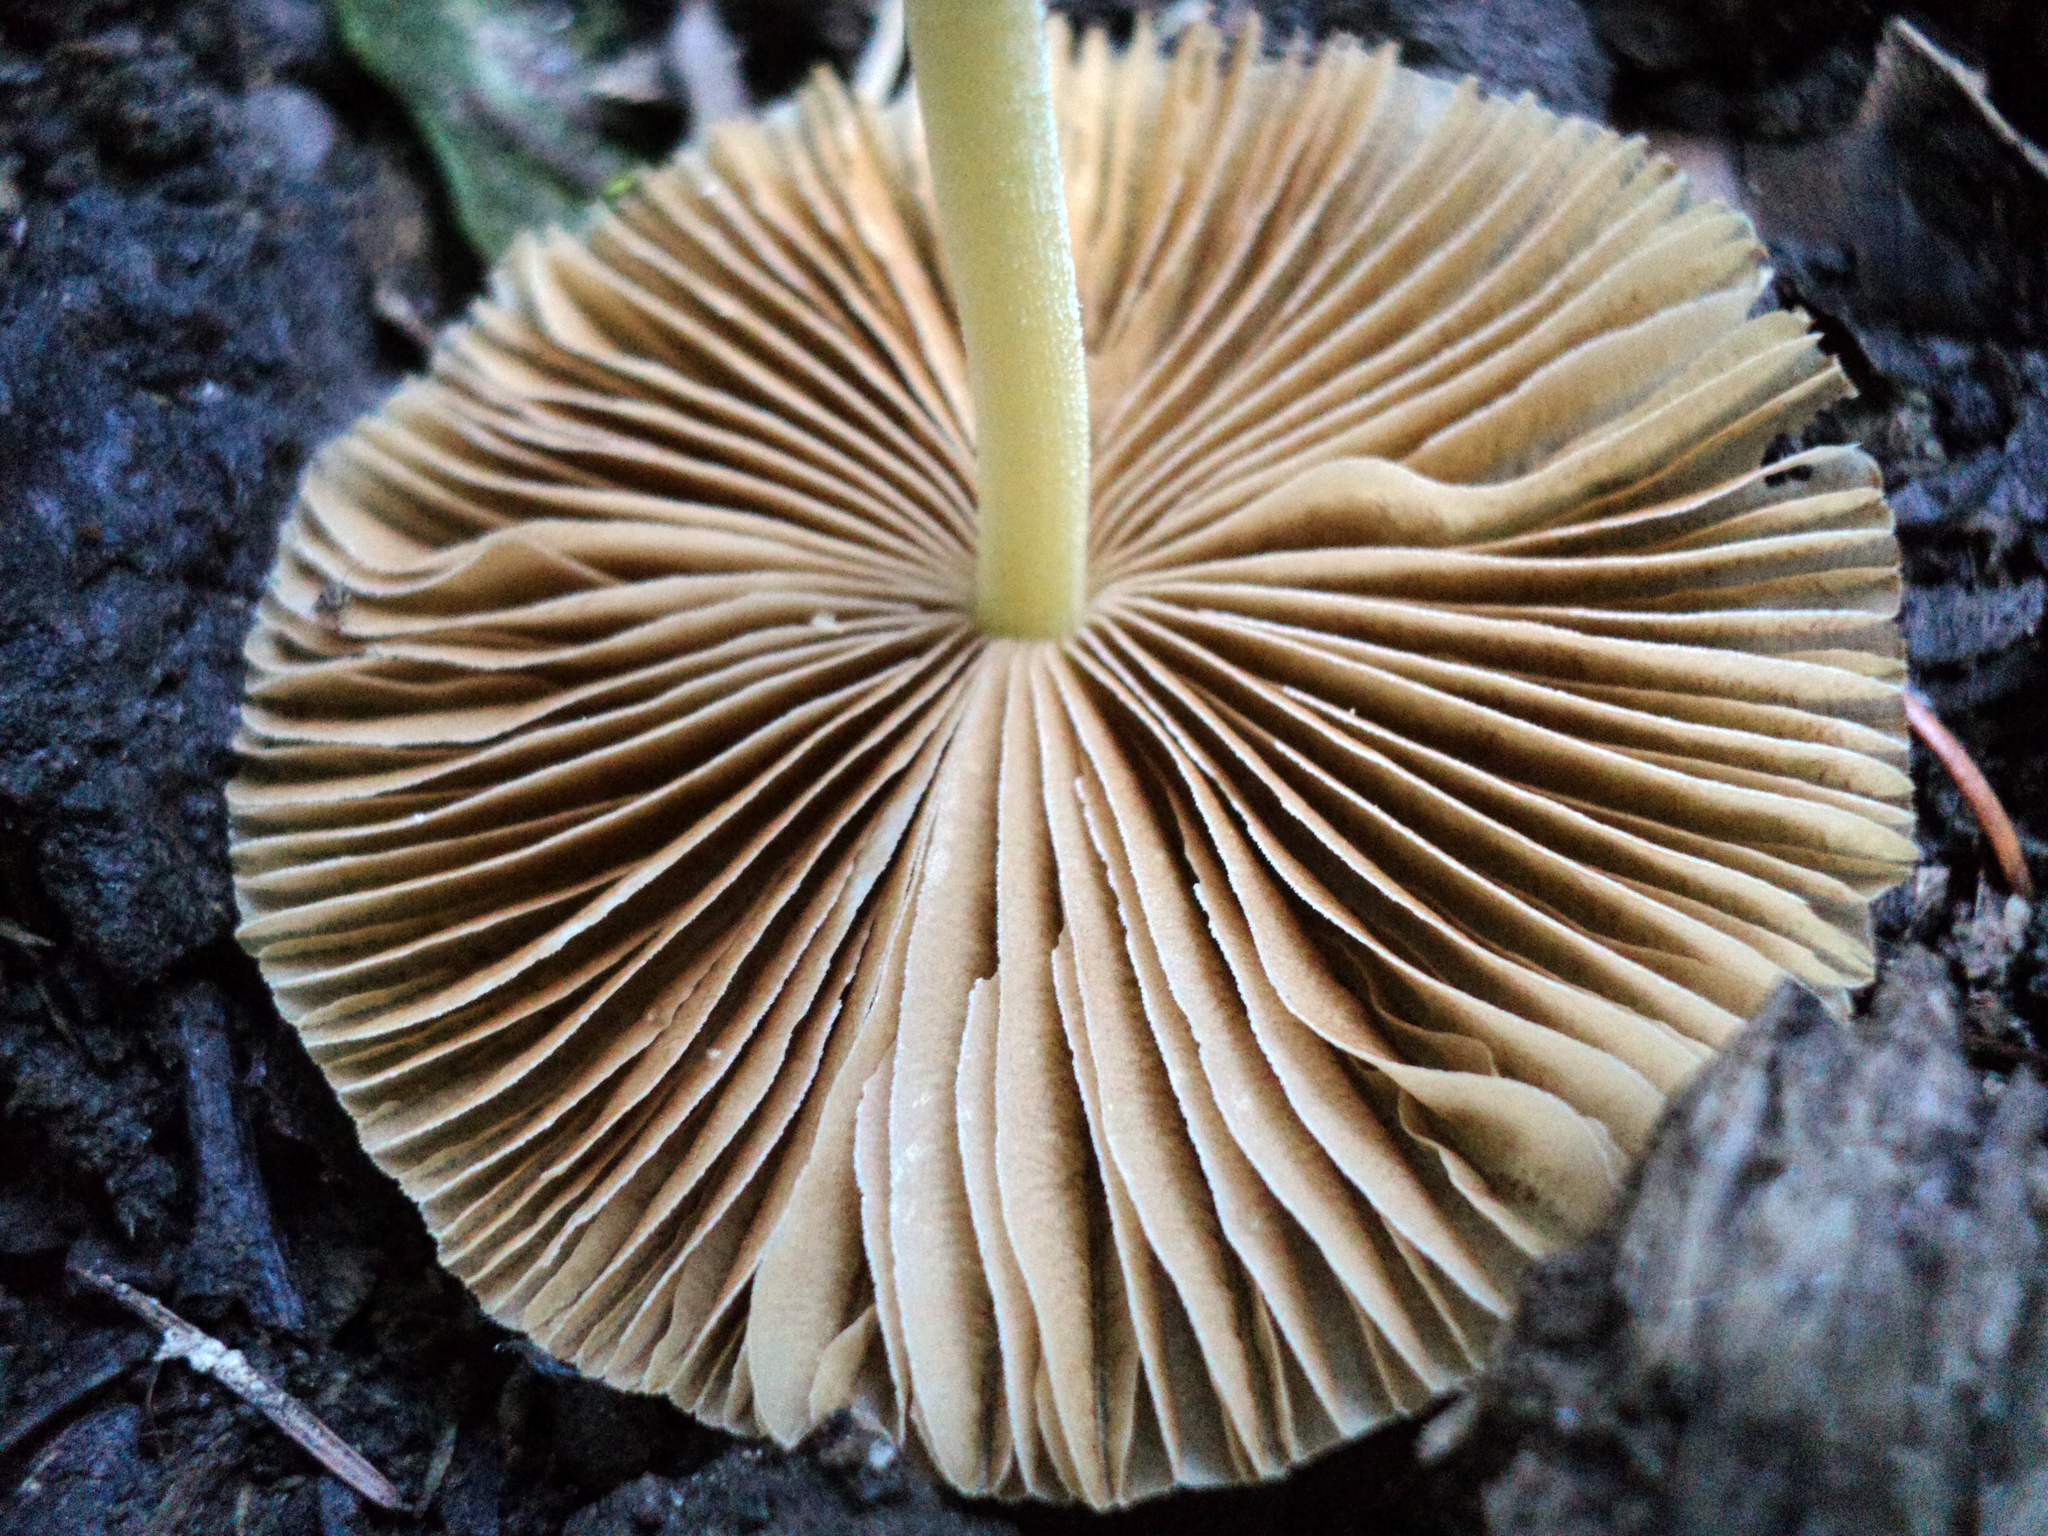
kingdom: Fungi
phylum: Basidiomycota
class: Agaricomycetes
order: Agaricales
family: Bolbitiaceae
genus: Bolbitius
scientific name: Bolbitius titubans
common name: Yellow fieldcap
